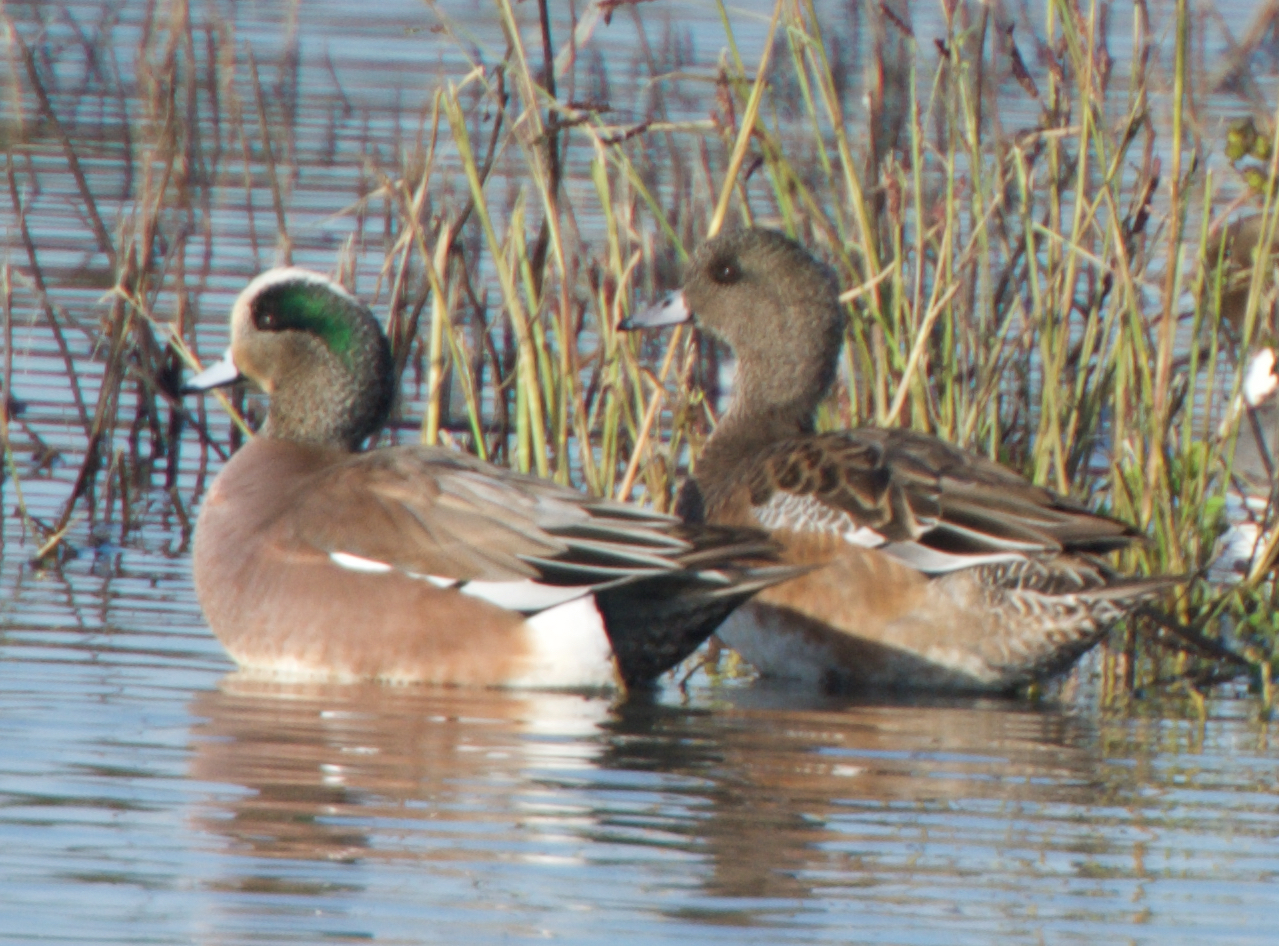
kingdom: Animalia
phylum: Chordata
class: Aves
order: Anseriformes
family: Anatidae
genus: Mareca
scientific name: Mareca americana
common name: American wigeon
